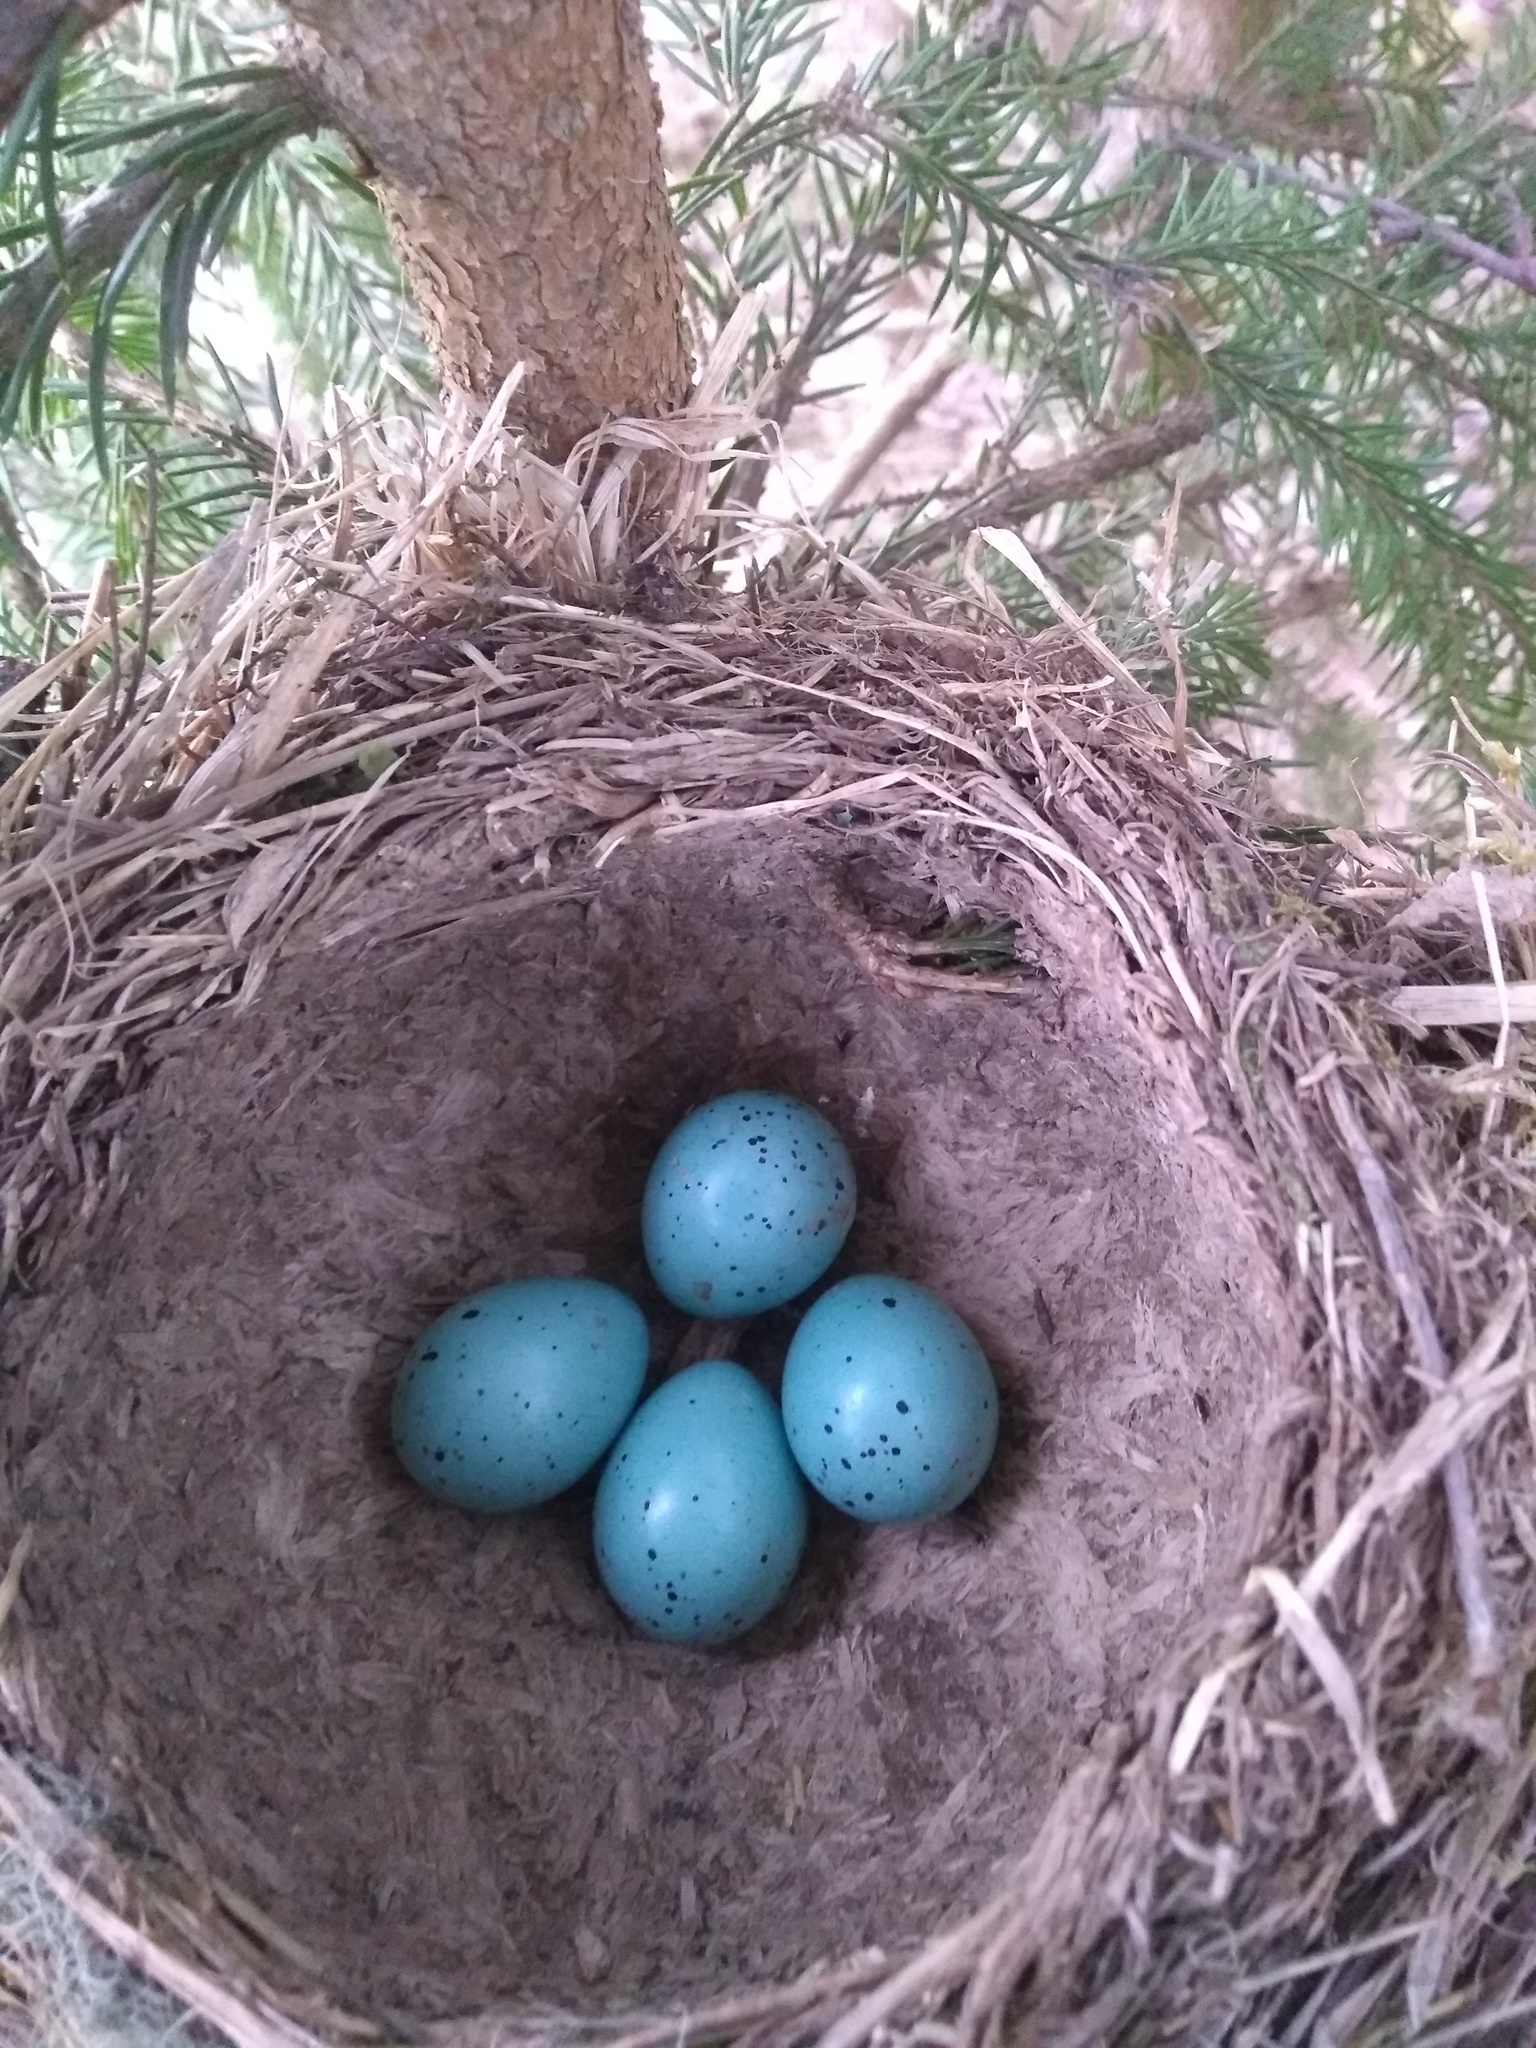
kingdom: Animalia
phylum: Chordata
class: Aves
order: Passeriformes
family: Turdidae
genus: Turdus
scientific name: Turdus philomelos
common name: Song thrush
